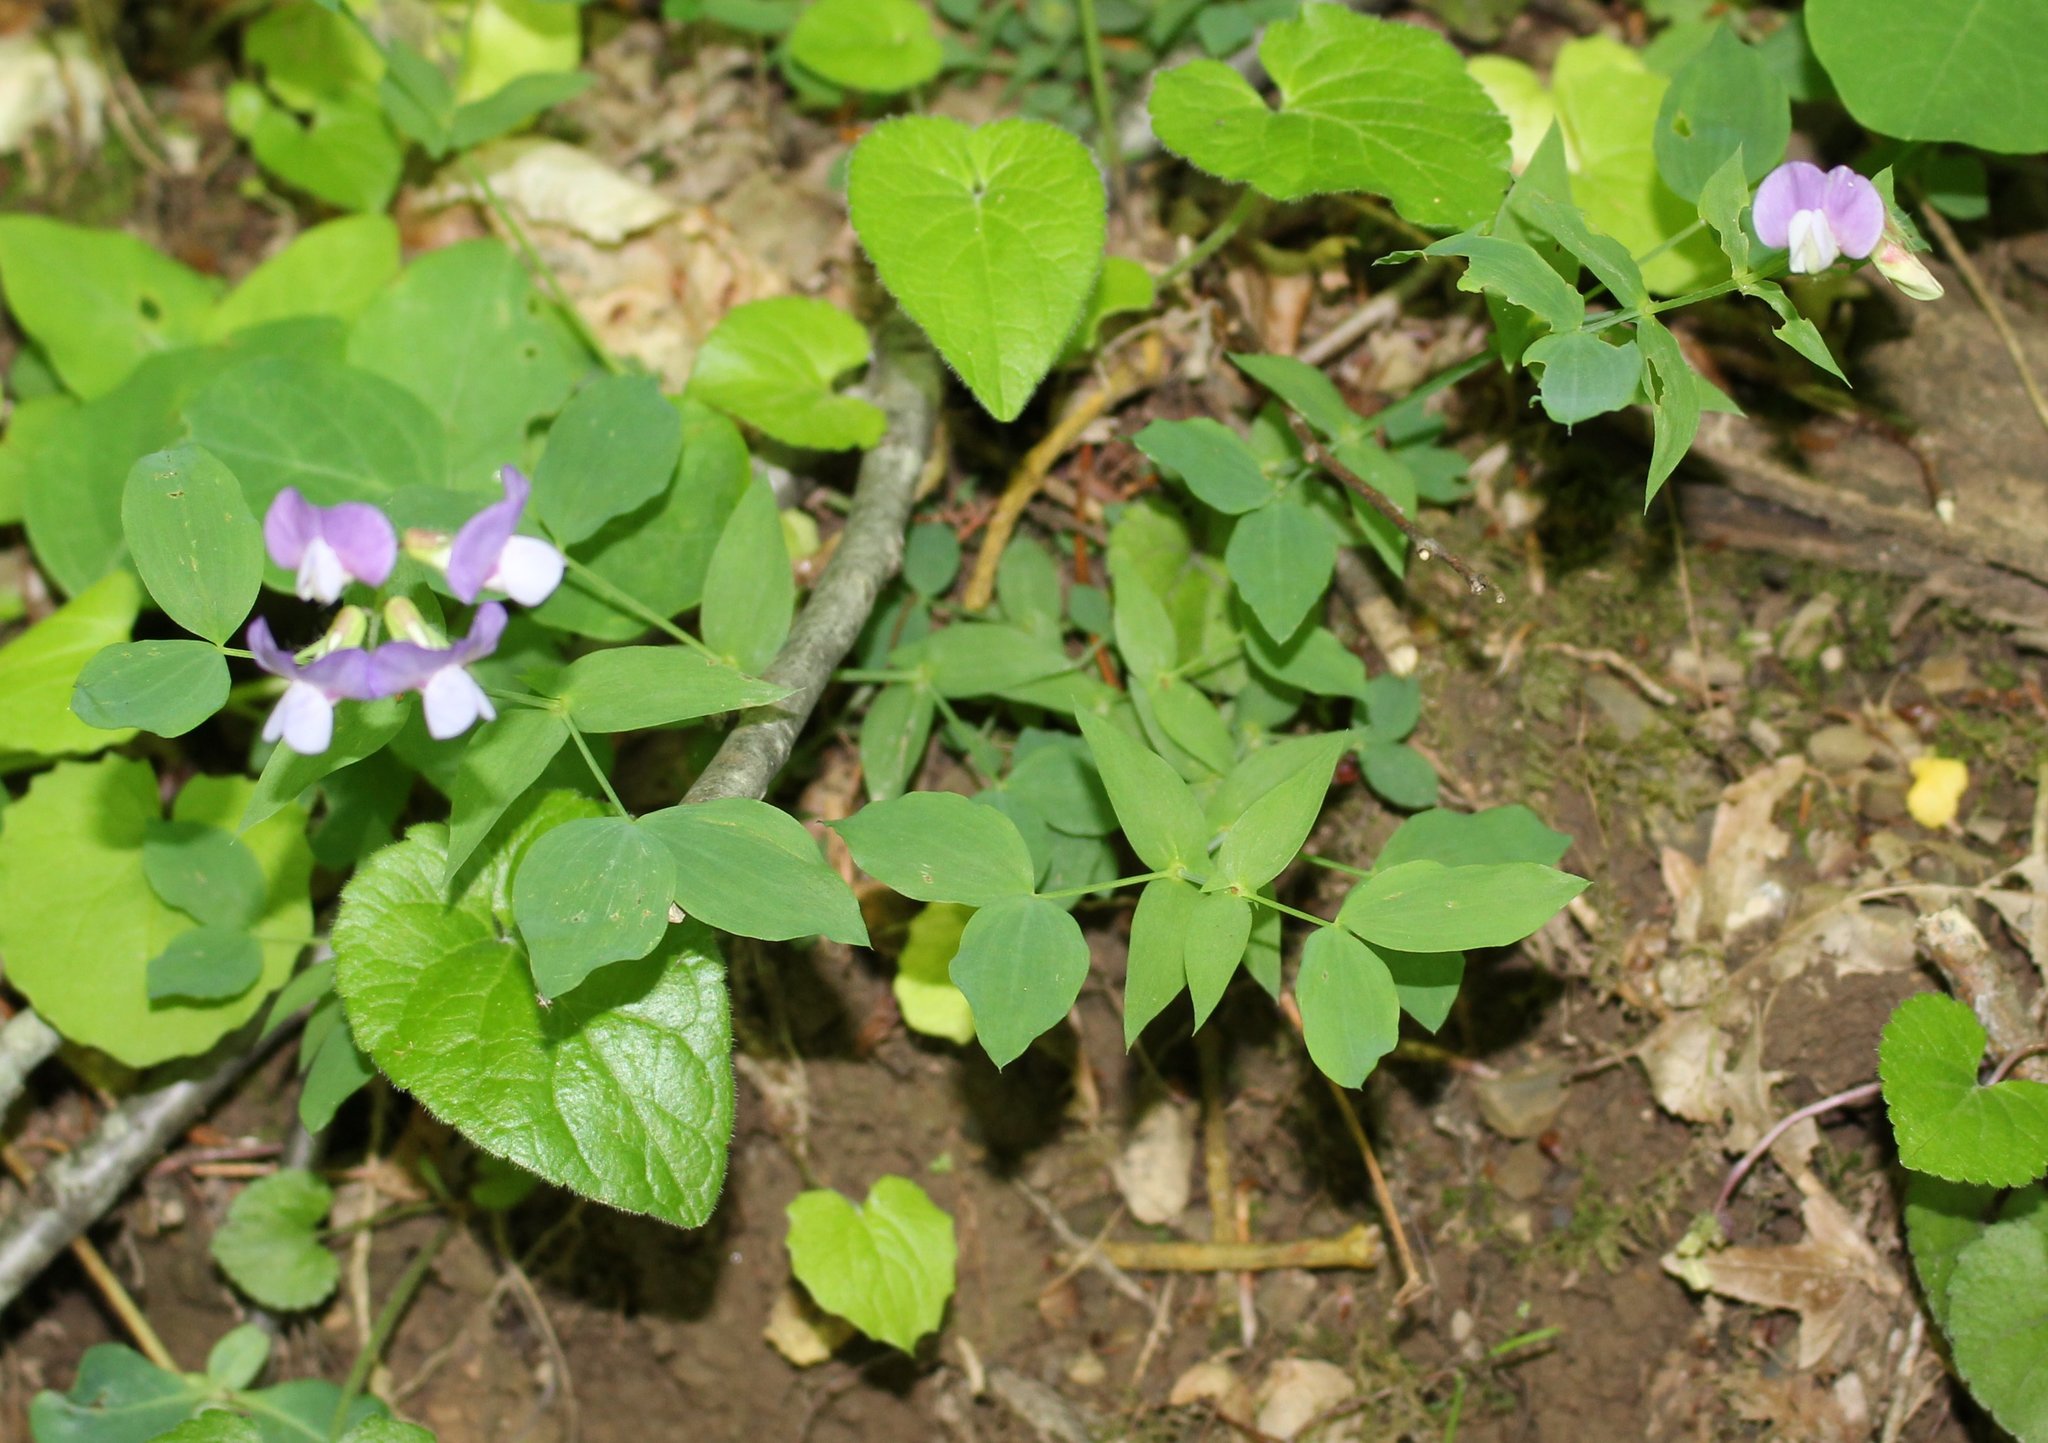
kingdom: Plantae
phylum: Tracheophyta
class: Magnoliopsida
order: Fabales
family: Fabaceae
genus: Lathyrus
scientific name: Lathyrus laxiflorus
